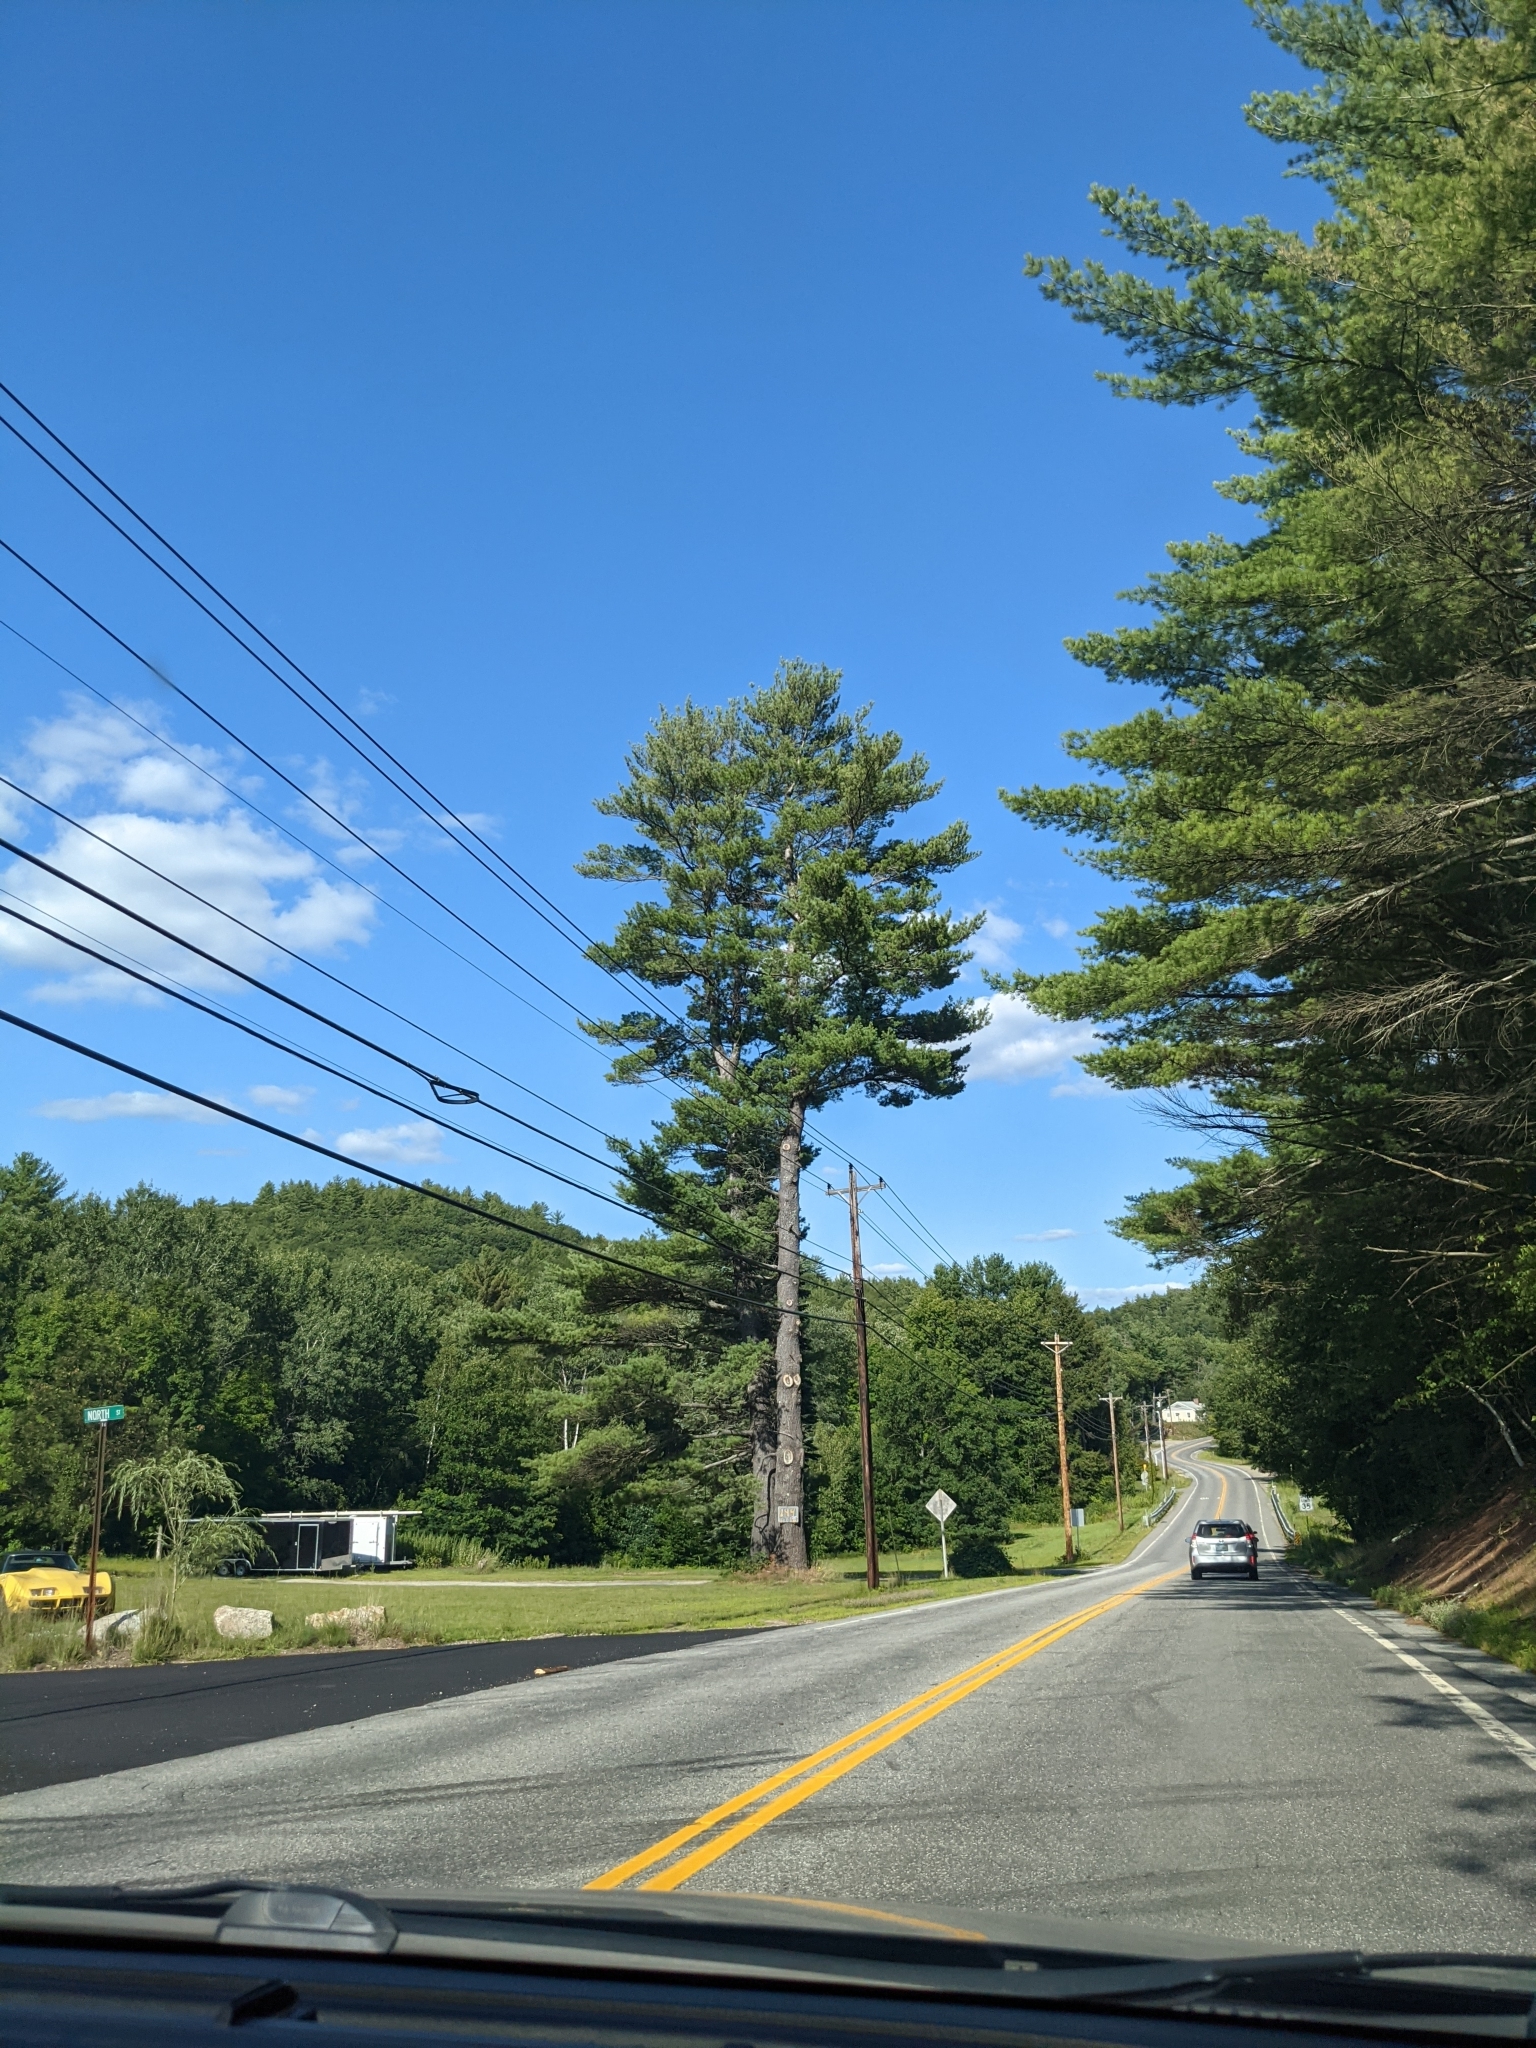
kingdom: Plantae
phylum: Tracheophyta
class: Pinopsida
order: Pinales
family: Pinaceae
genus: Pinus
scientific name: Pinus strobus
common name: Weymouth pine
